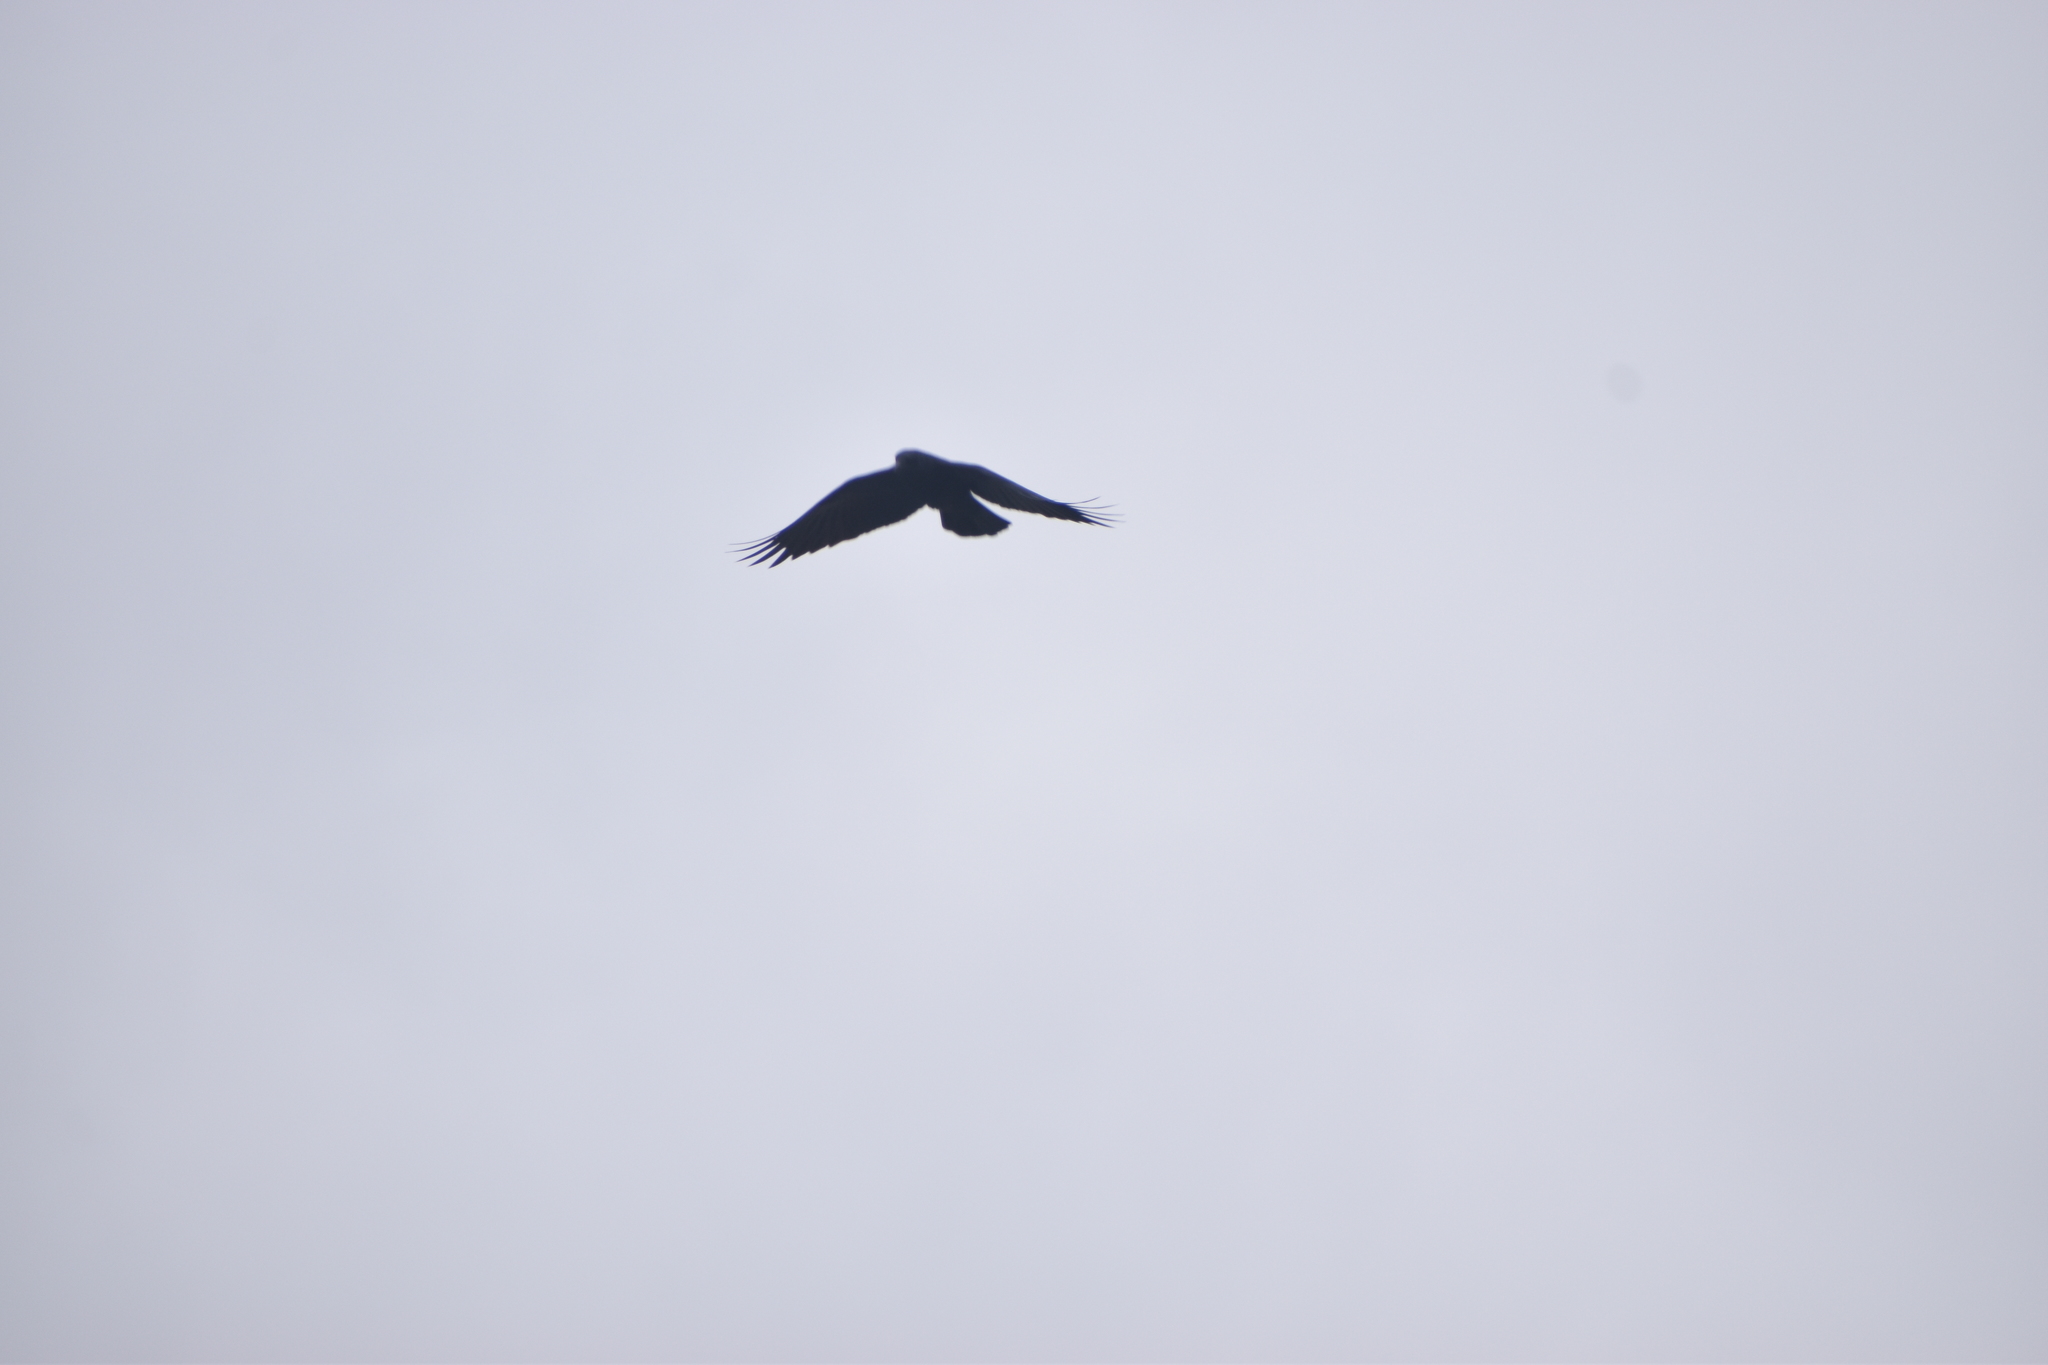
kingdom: Animalia
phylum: Chordata
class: Aves
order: Passeriformes
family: Corvidae
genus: Corvus
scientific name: Corvus brachyrhynchos
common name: American crow
